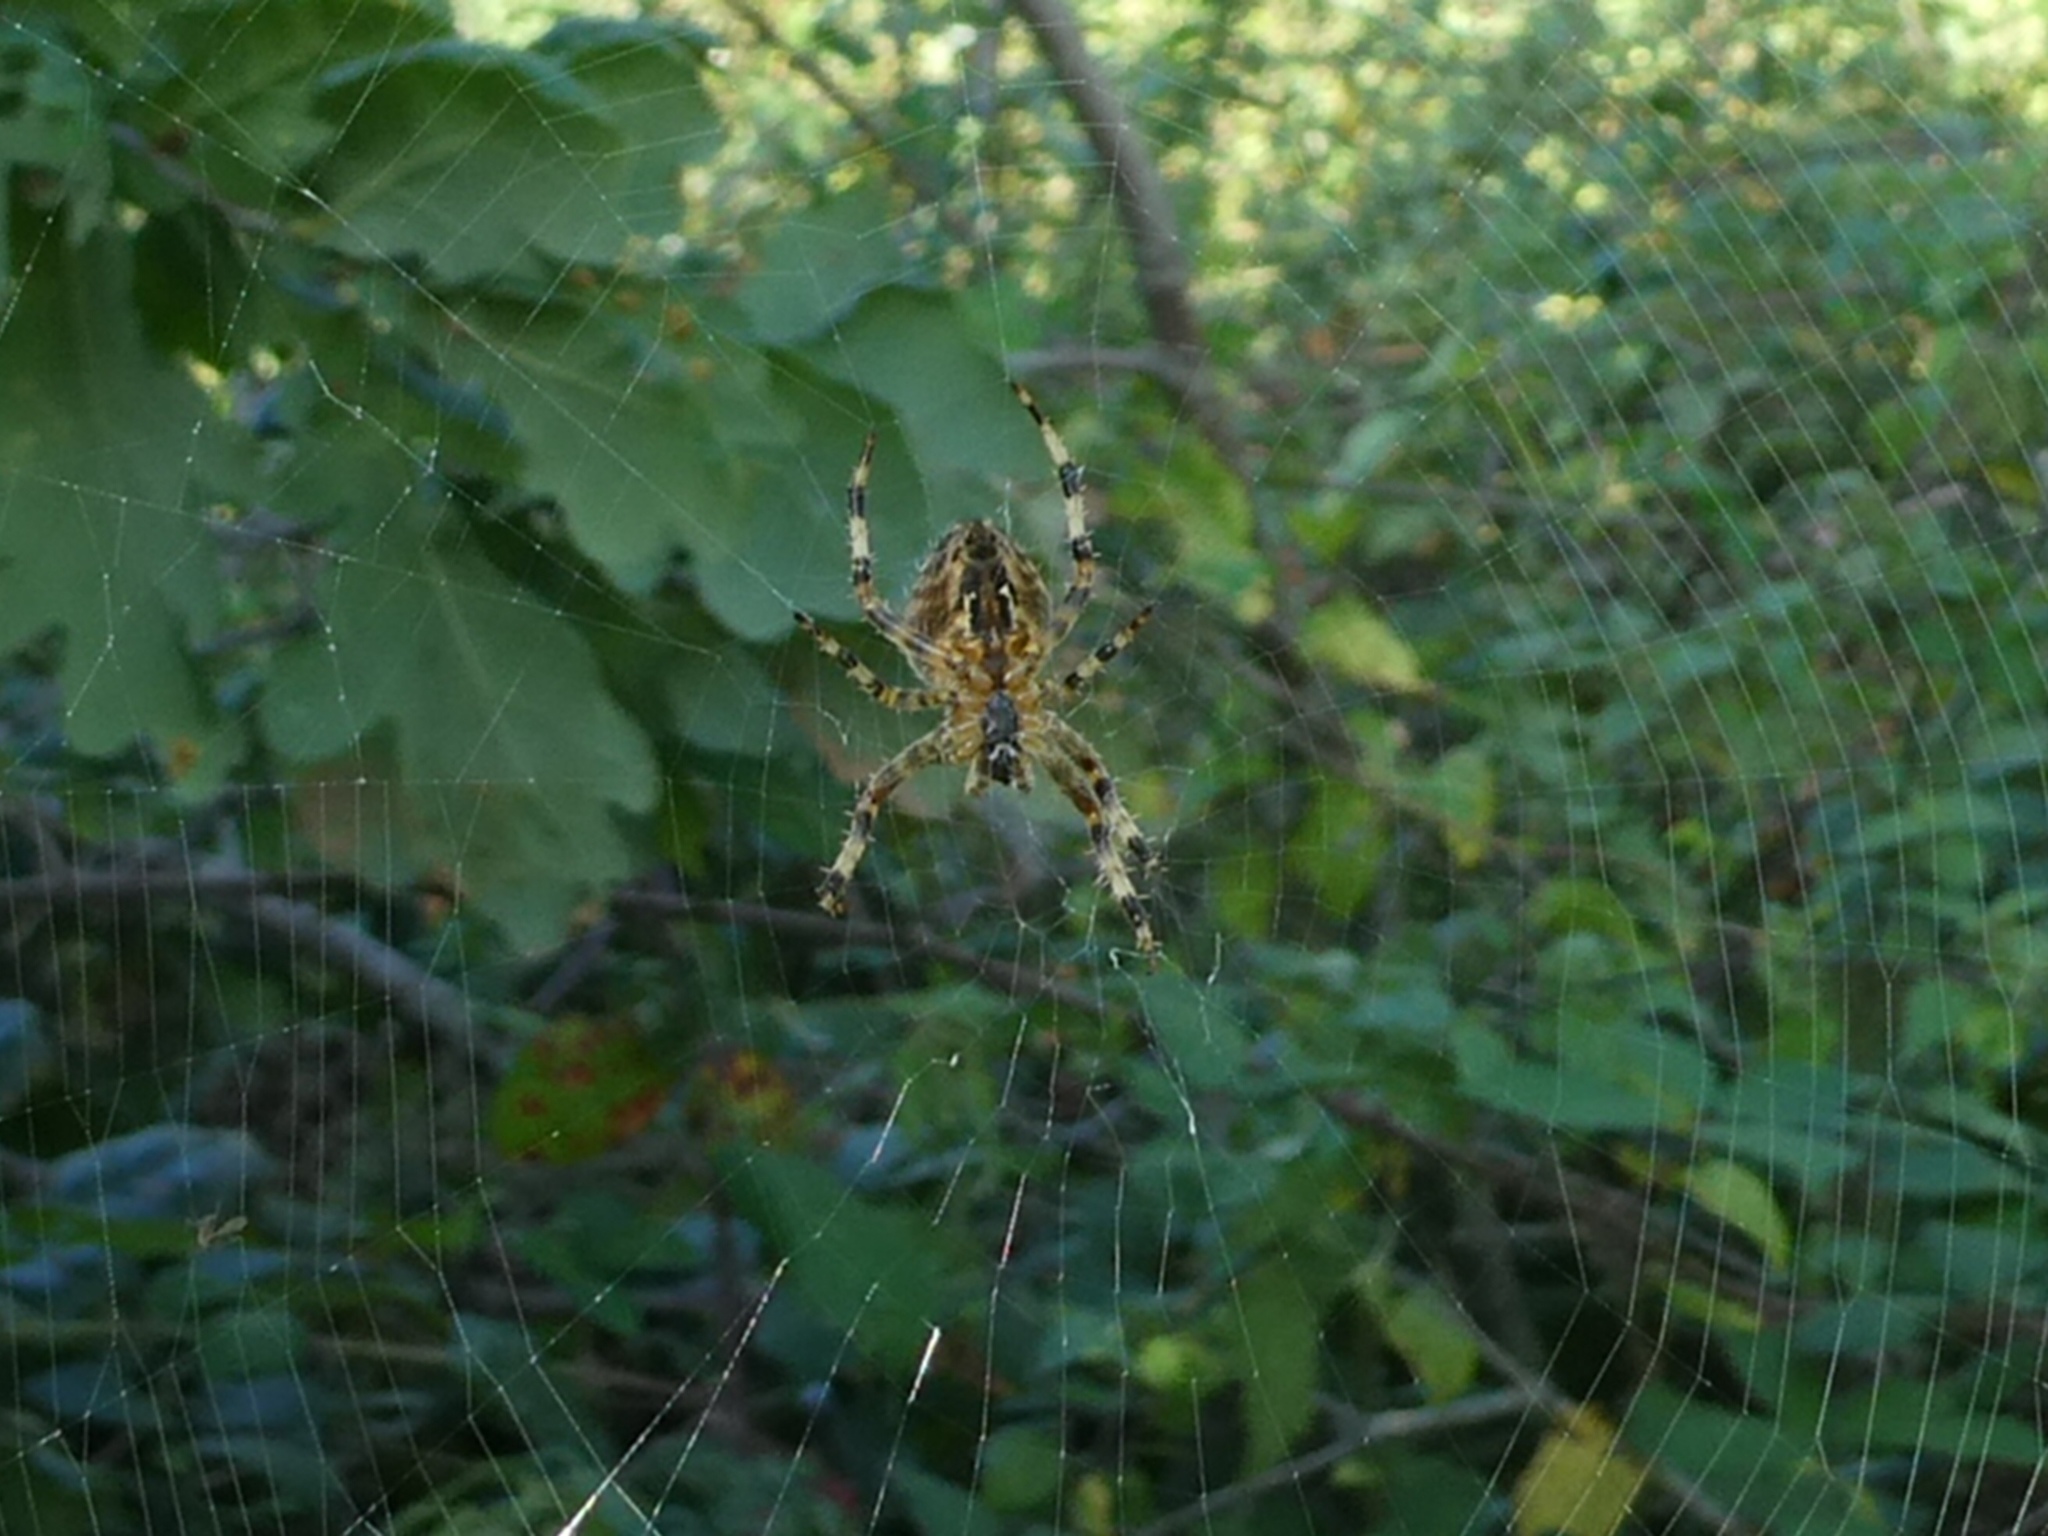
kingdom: Animalia
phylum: Arthropoda
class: Arachnida
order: Araneae
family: Araneidae
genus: Araneus
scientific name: Araneus diadematus
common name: Cross orbweaver
